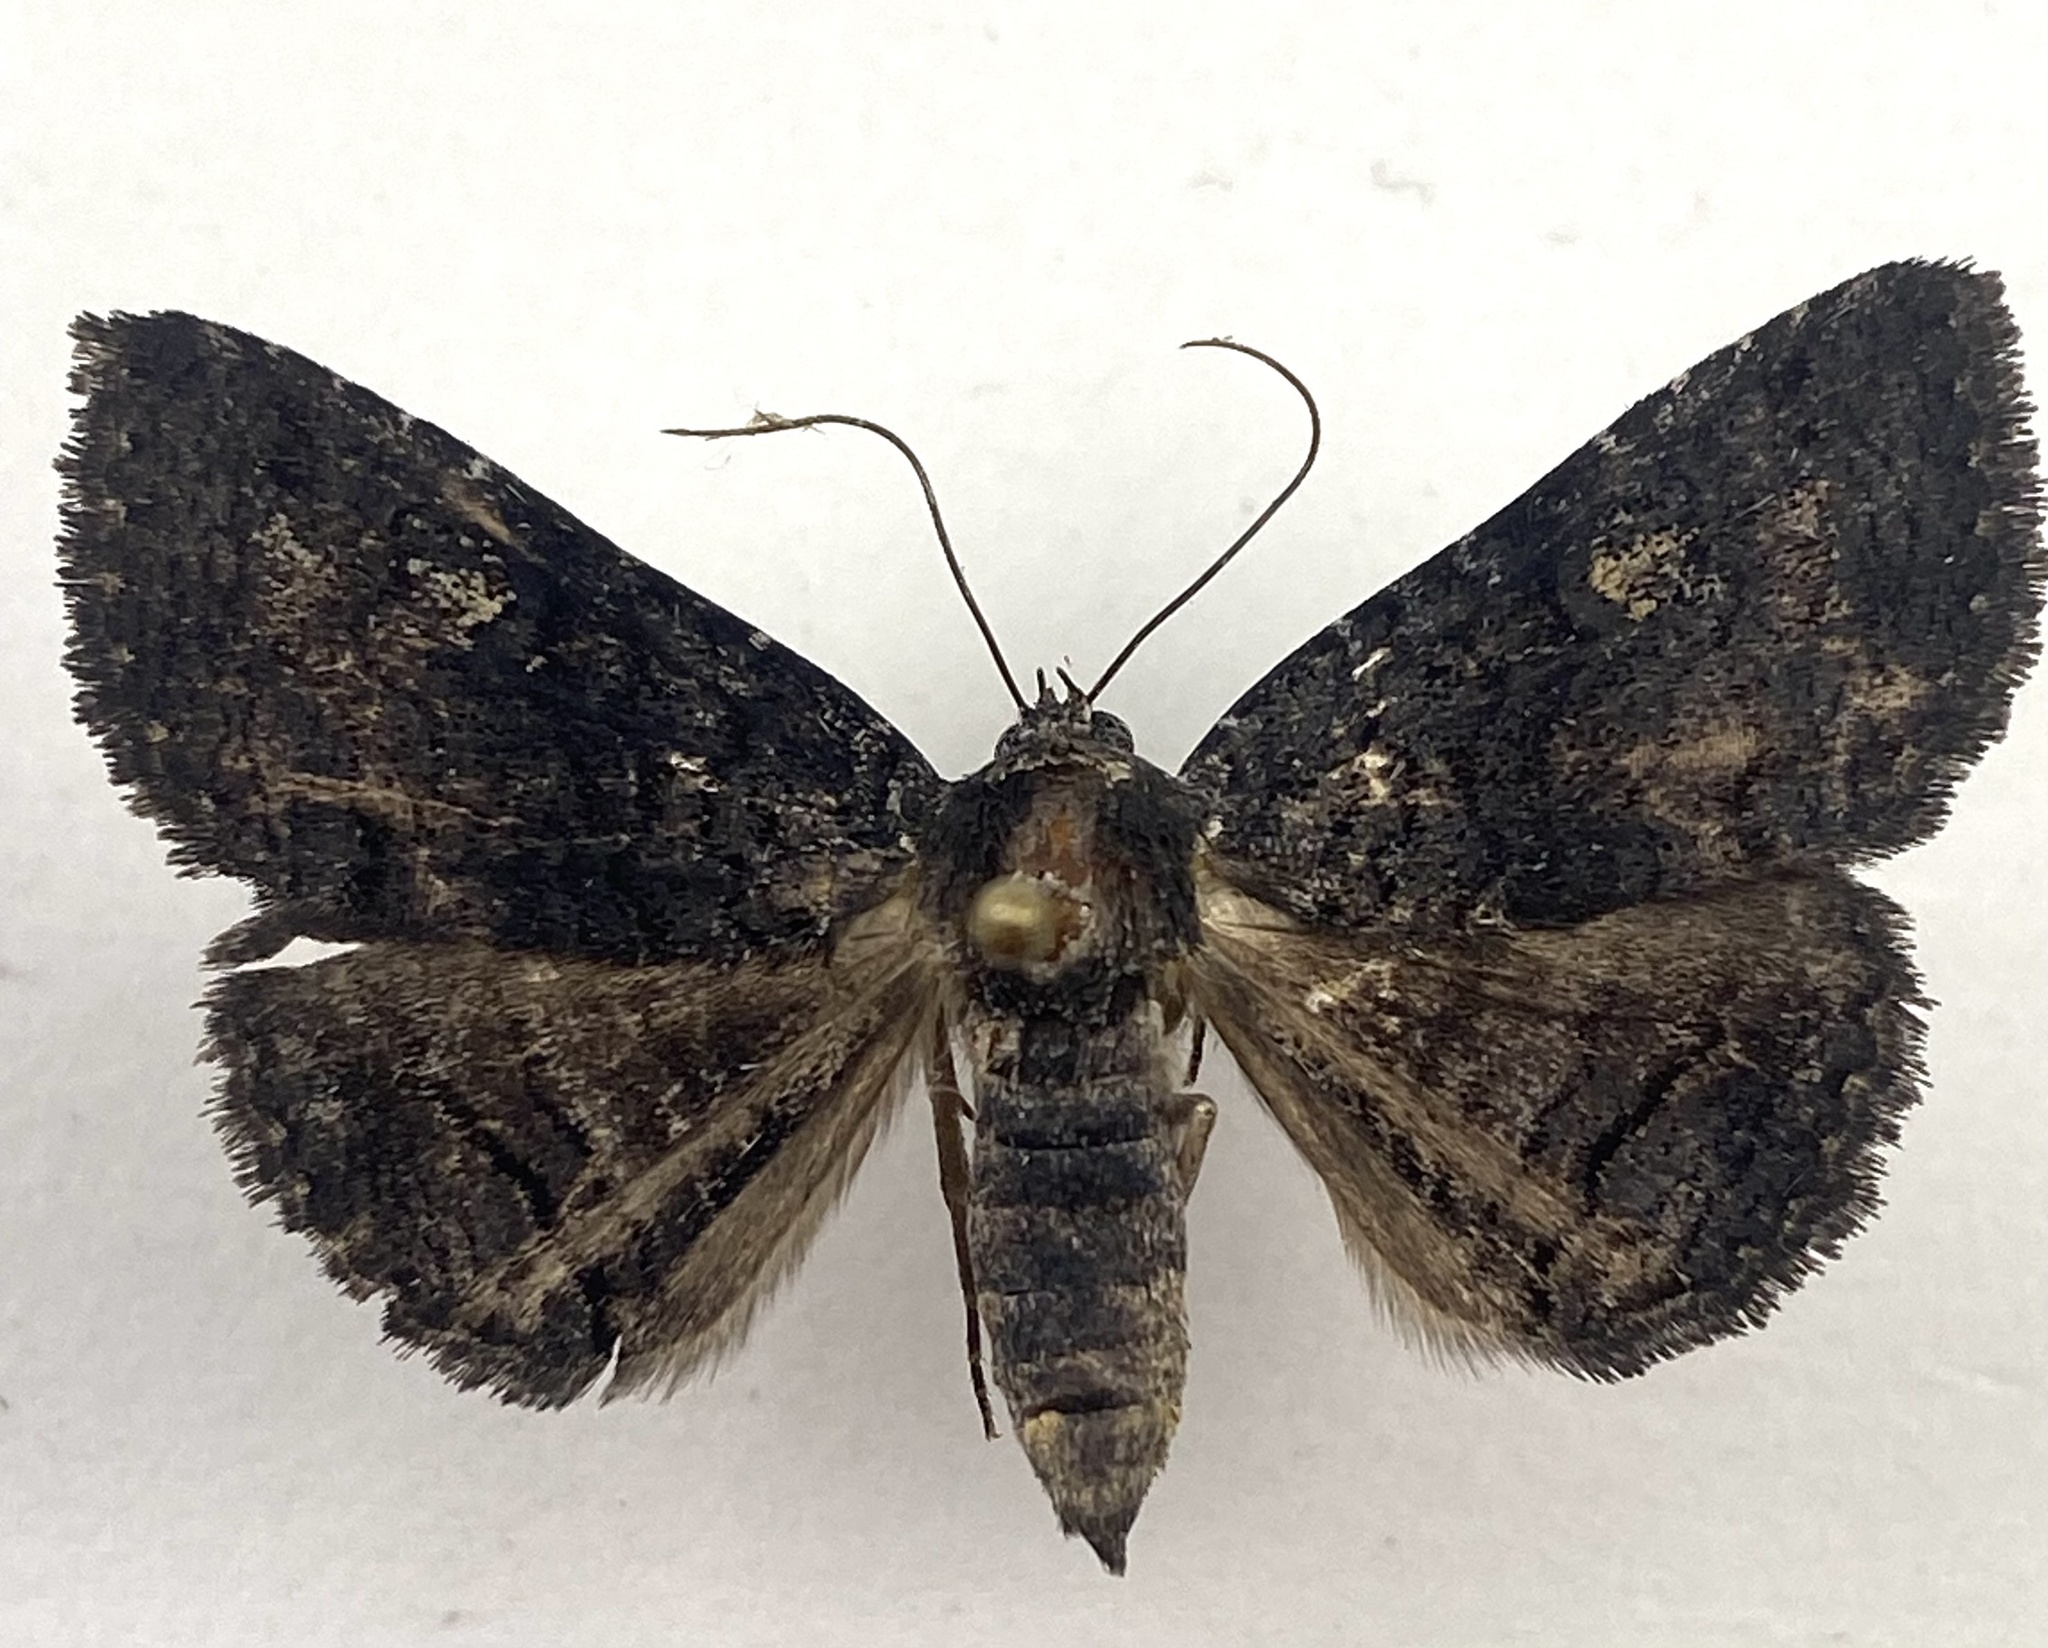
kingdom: Animalia
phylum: Arthropoda
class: Insecta
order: Lepidoptera
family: Erebidae
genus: Zale
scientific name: Zale coracias
